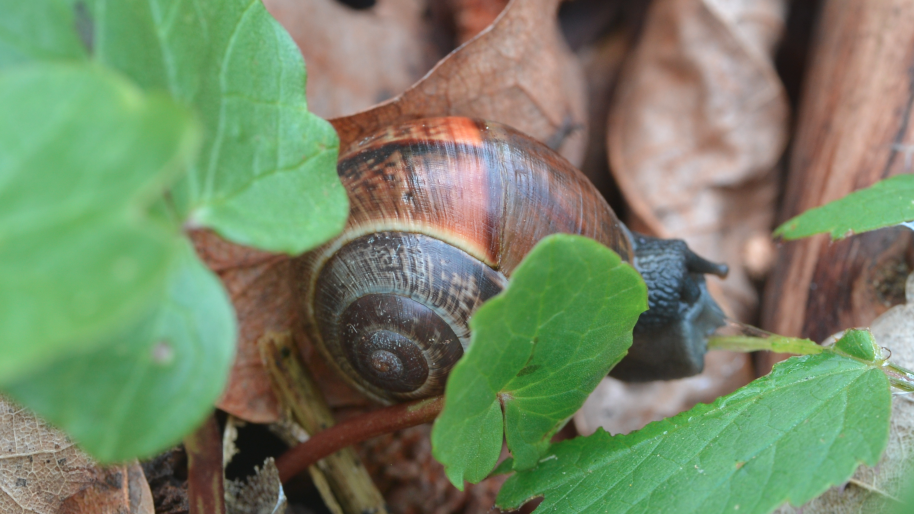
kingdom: Animalia
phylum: Mollusca
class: Gastropoda
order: Stylommatophora
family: Helicidae
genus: Arianta
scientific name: Arianta arbustorum
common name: Copse snail
